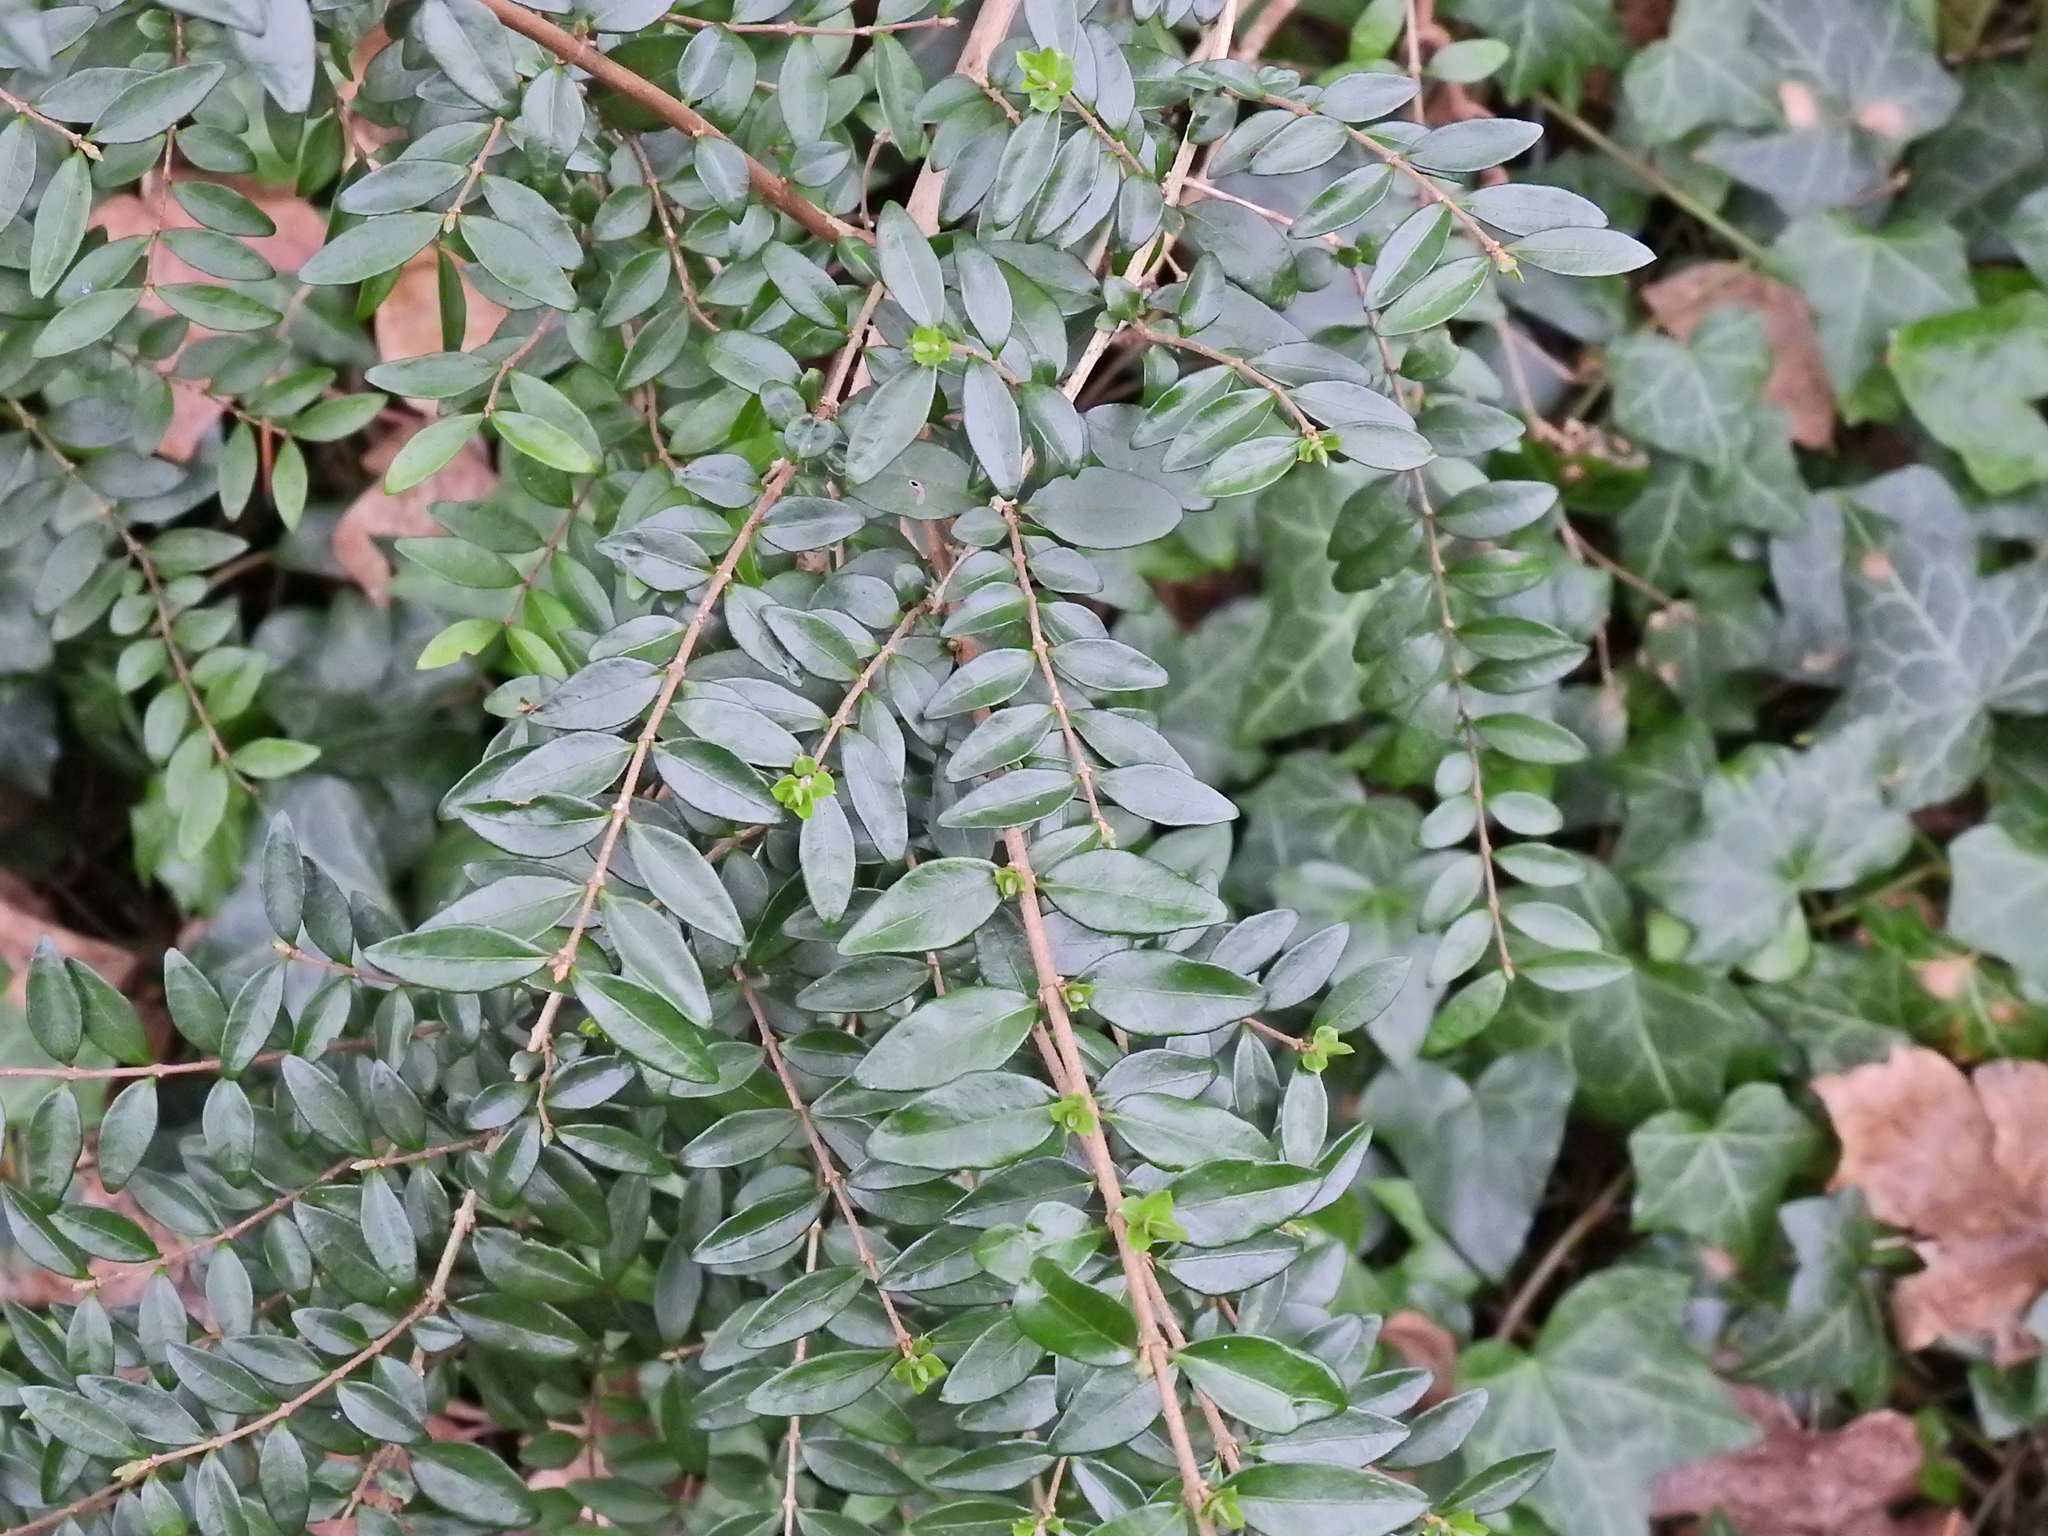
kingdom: Plantae
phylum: Tracheophyta
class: Magnoliopsida
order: Dipsacales
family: Caprifoliaceae
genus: Lonicera
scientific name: Lonicera ligustrina
